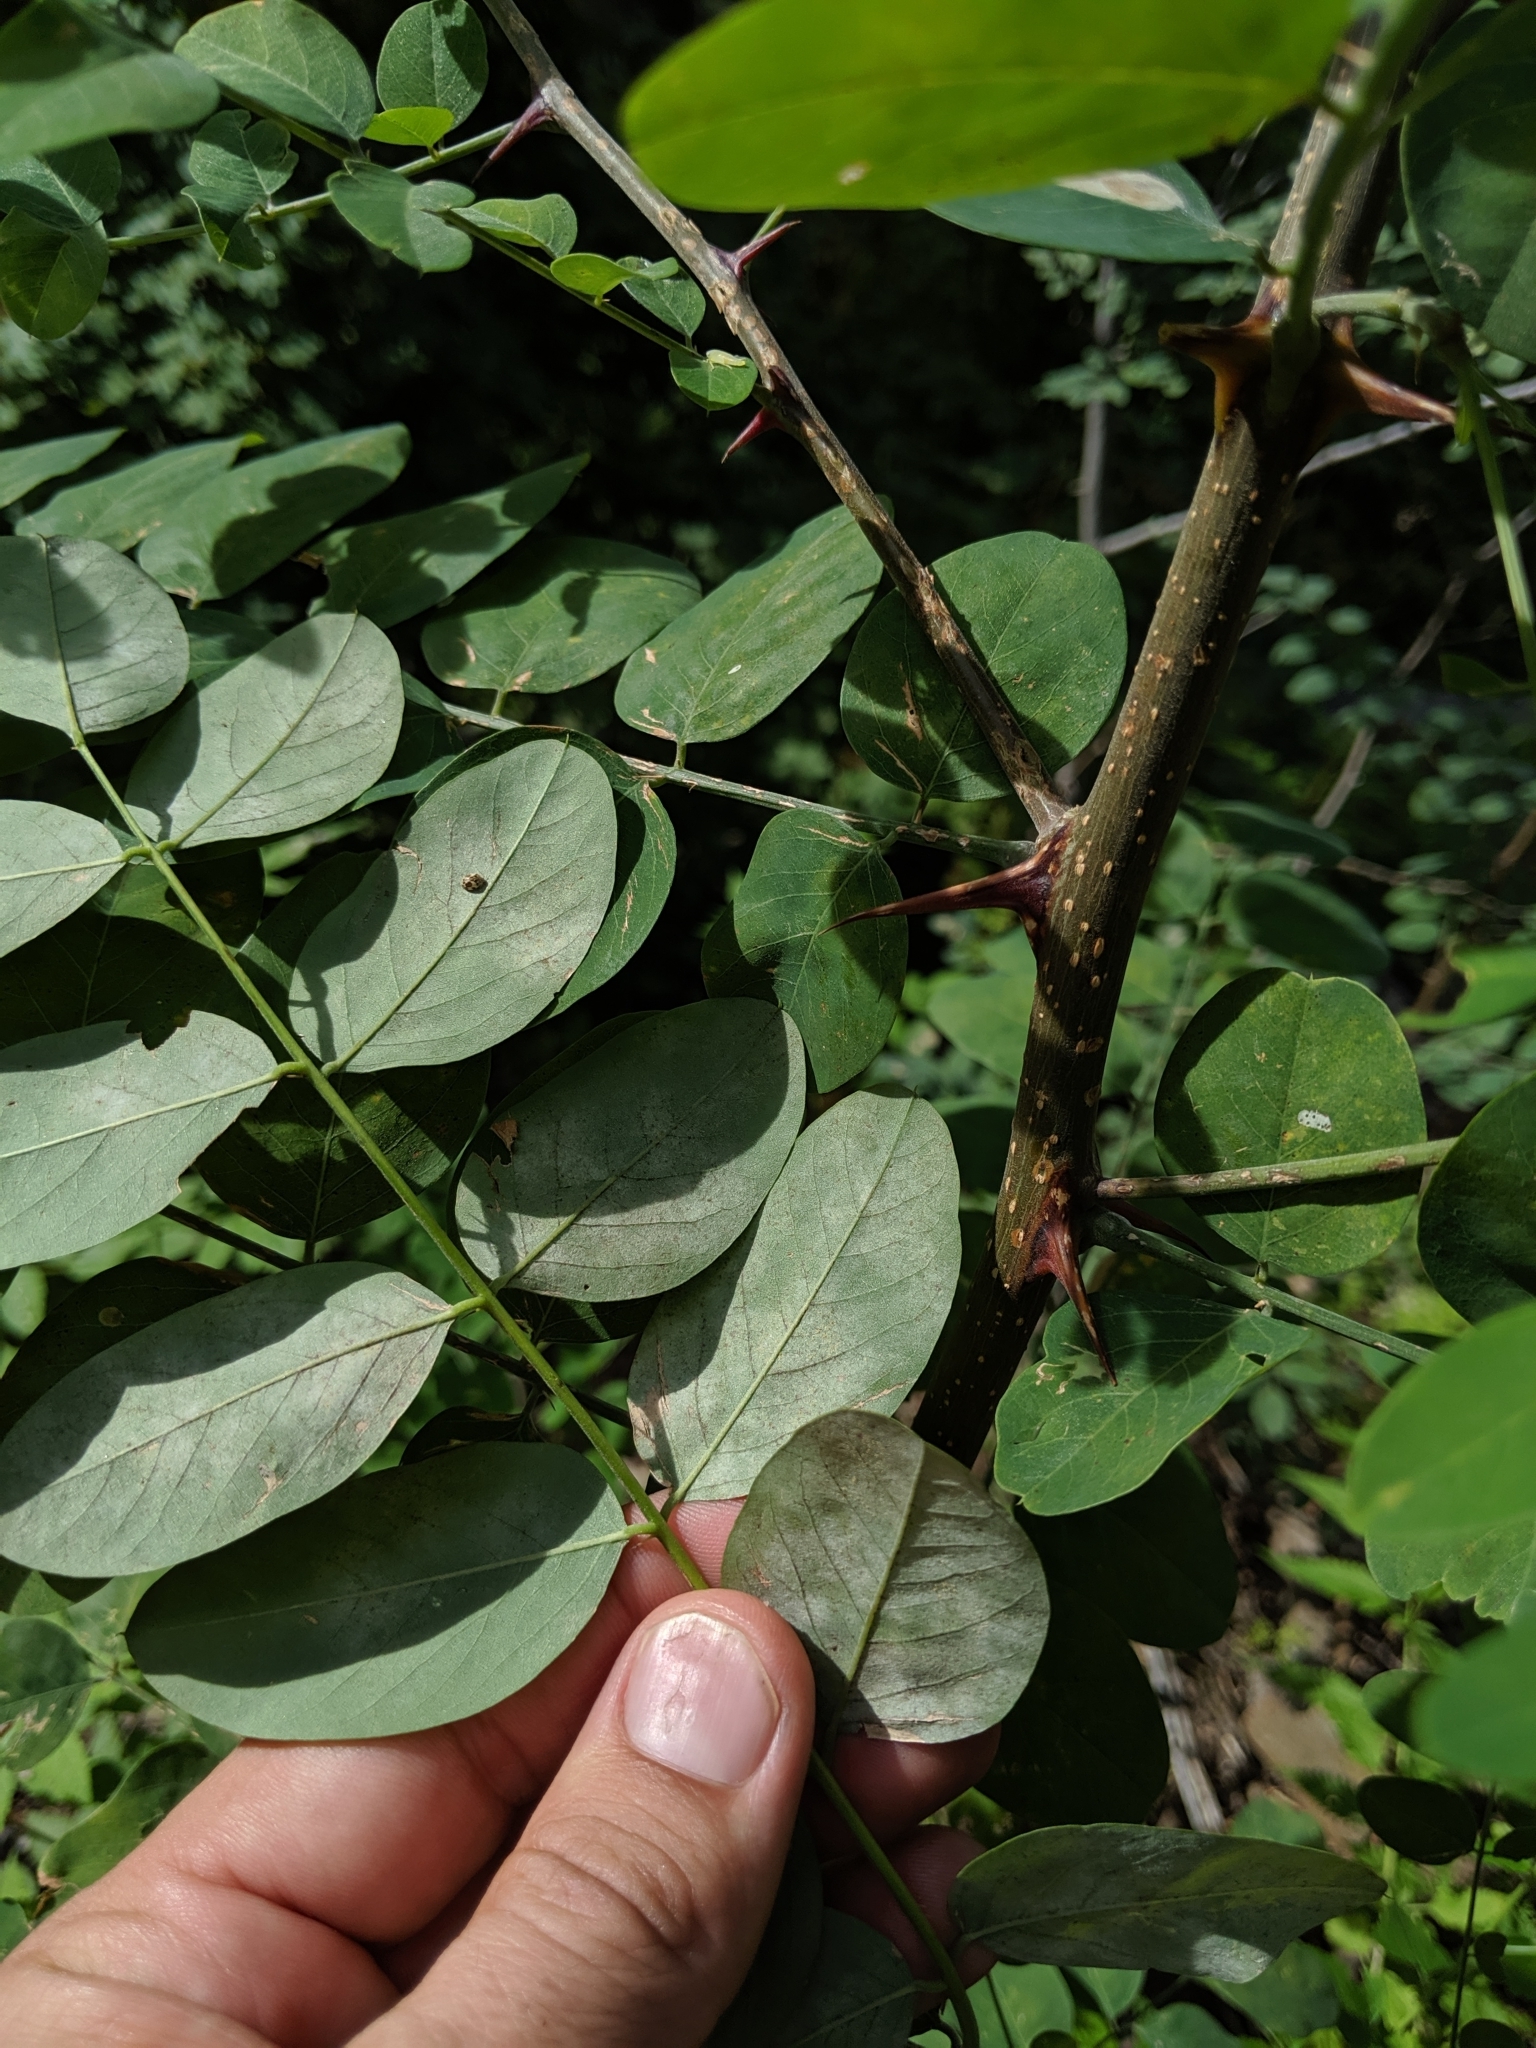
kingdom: Plantae
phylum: Tracheophyta
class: Magnoliopsida
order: Fabales
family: Fabaceae
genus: Robinia
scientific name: Robinia neomexicana
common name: New mexico locust
